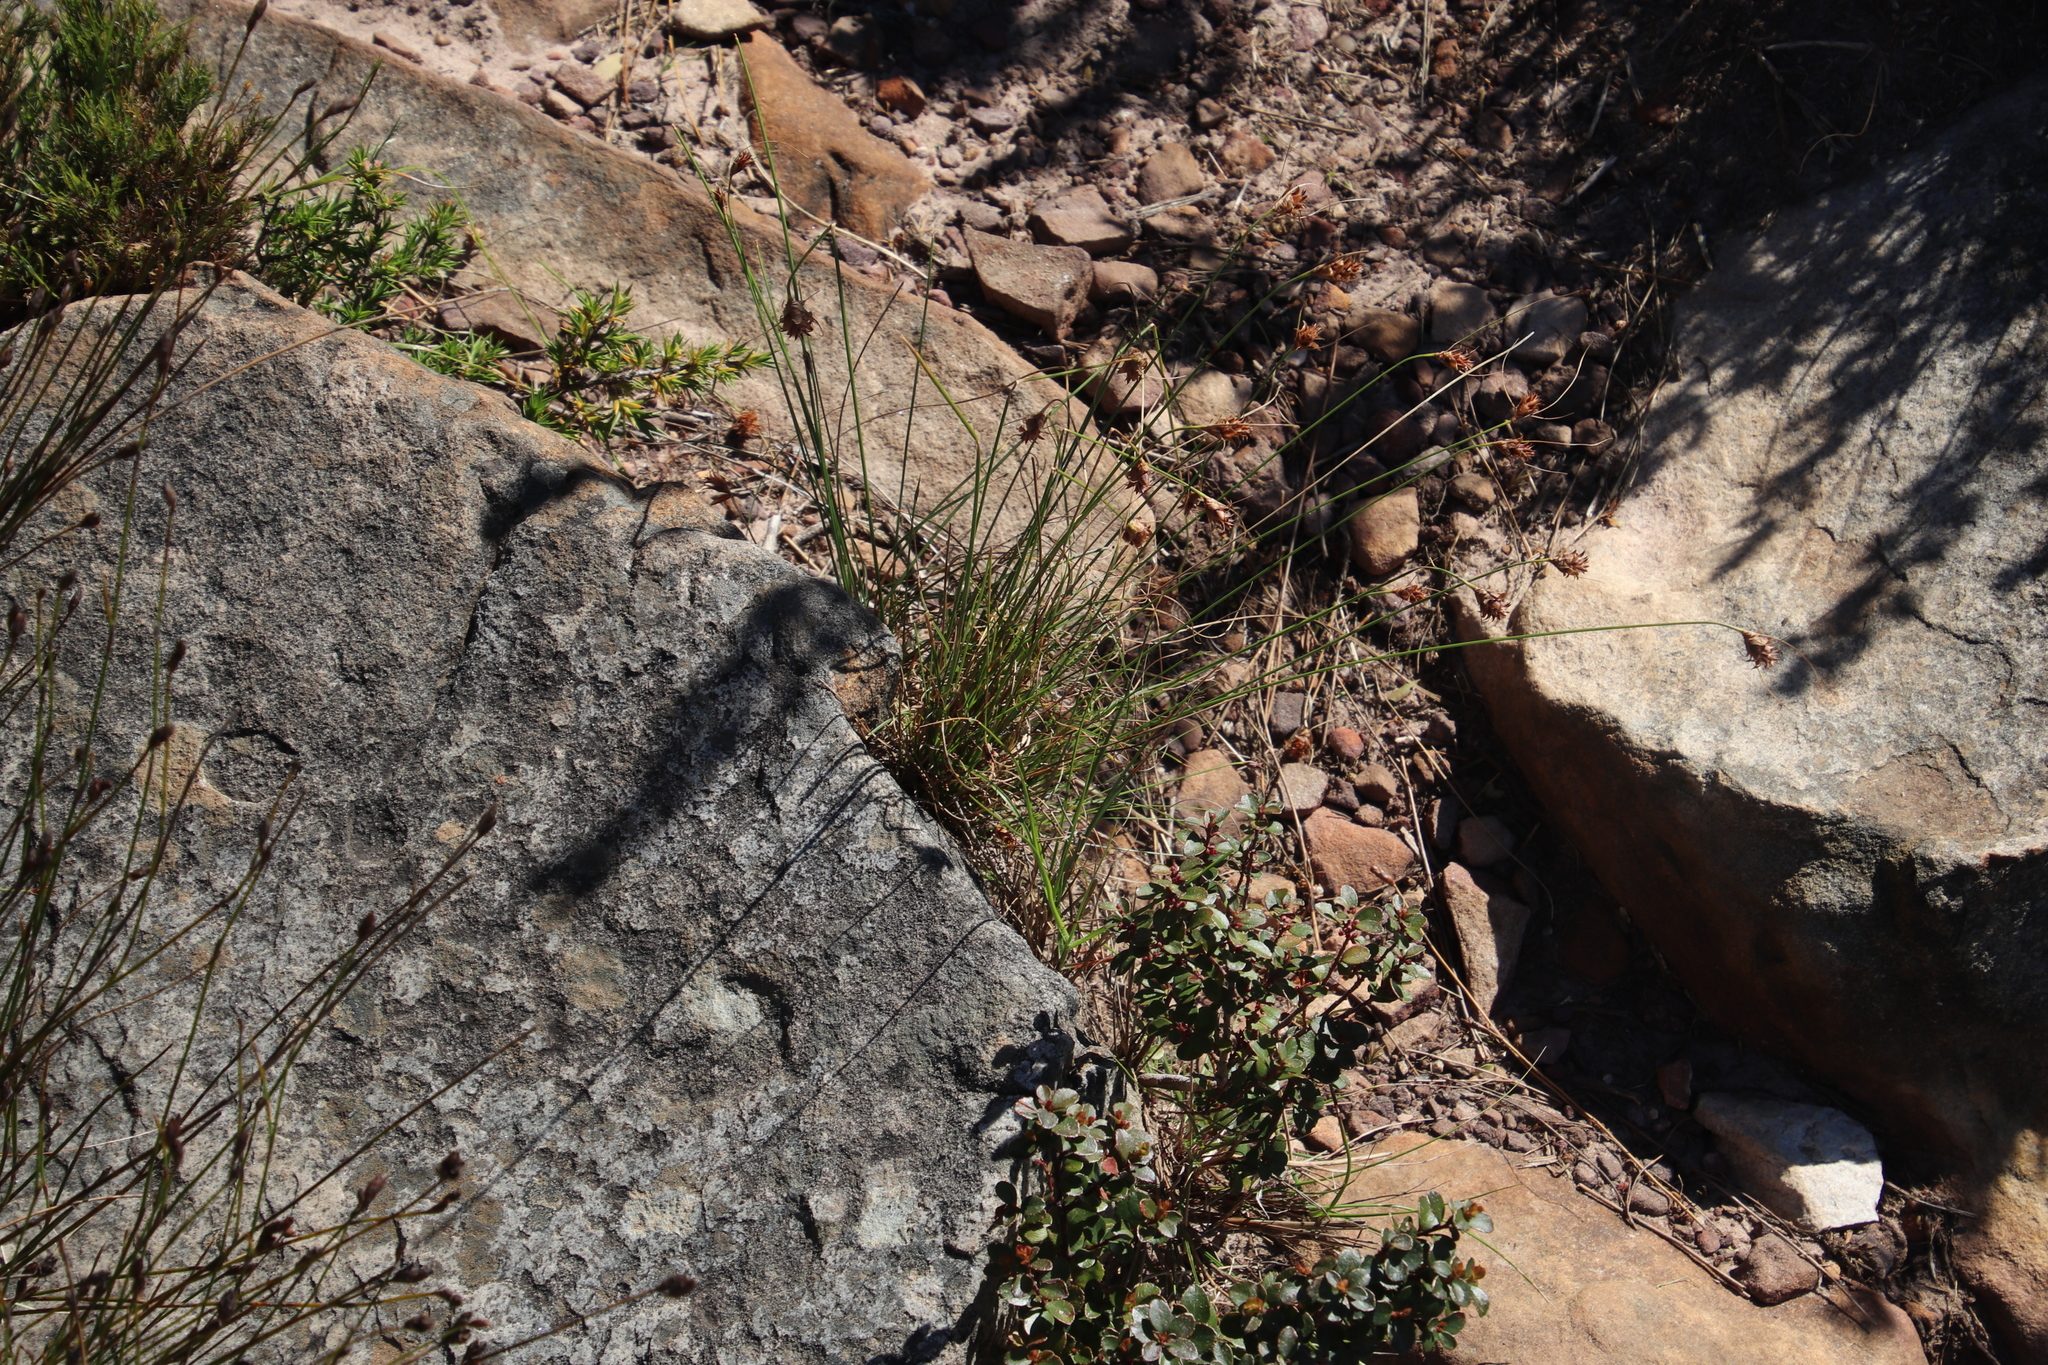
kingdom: Plantae
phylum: Tracheophyta
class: Liliopsida
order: Poales
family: Cyperaceae
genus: Ficinia
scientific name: Ficinia nigrescens
